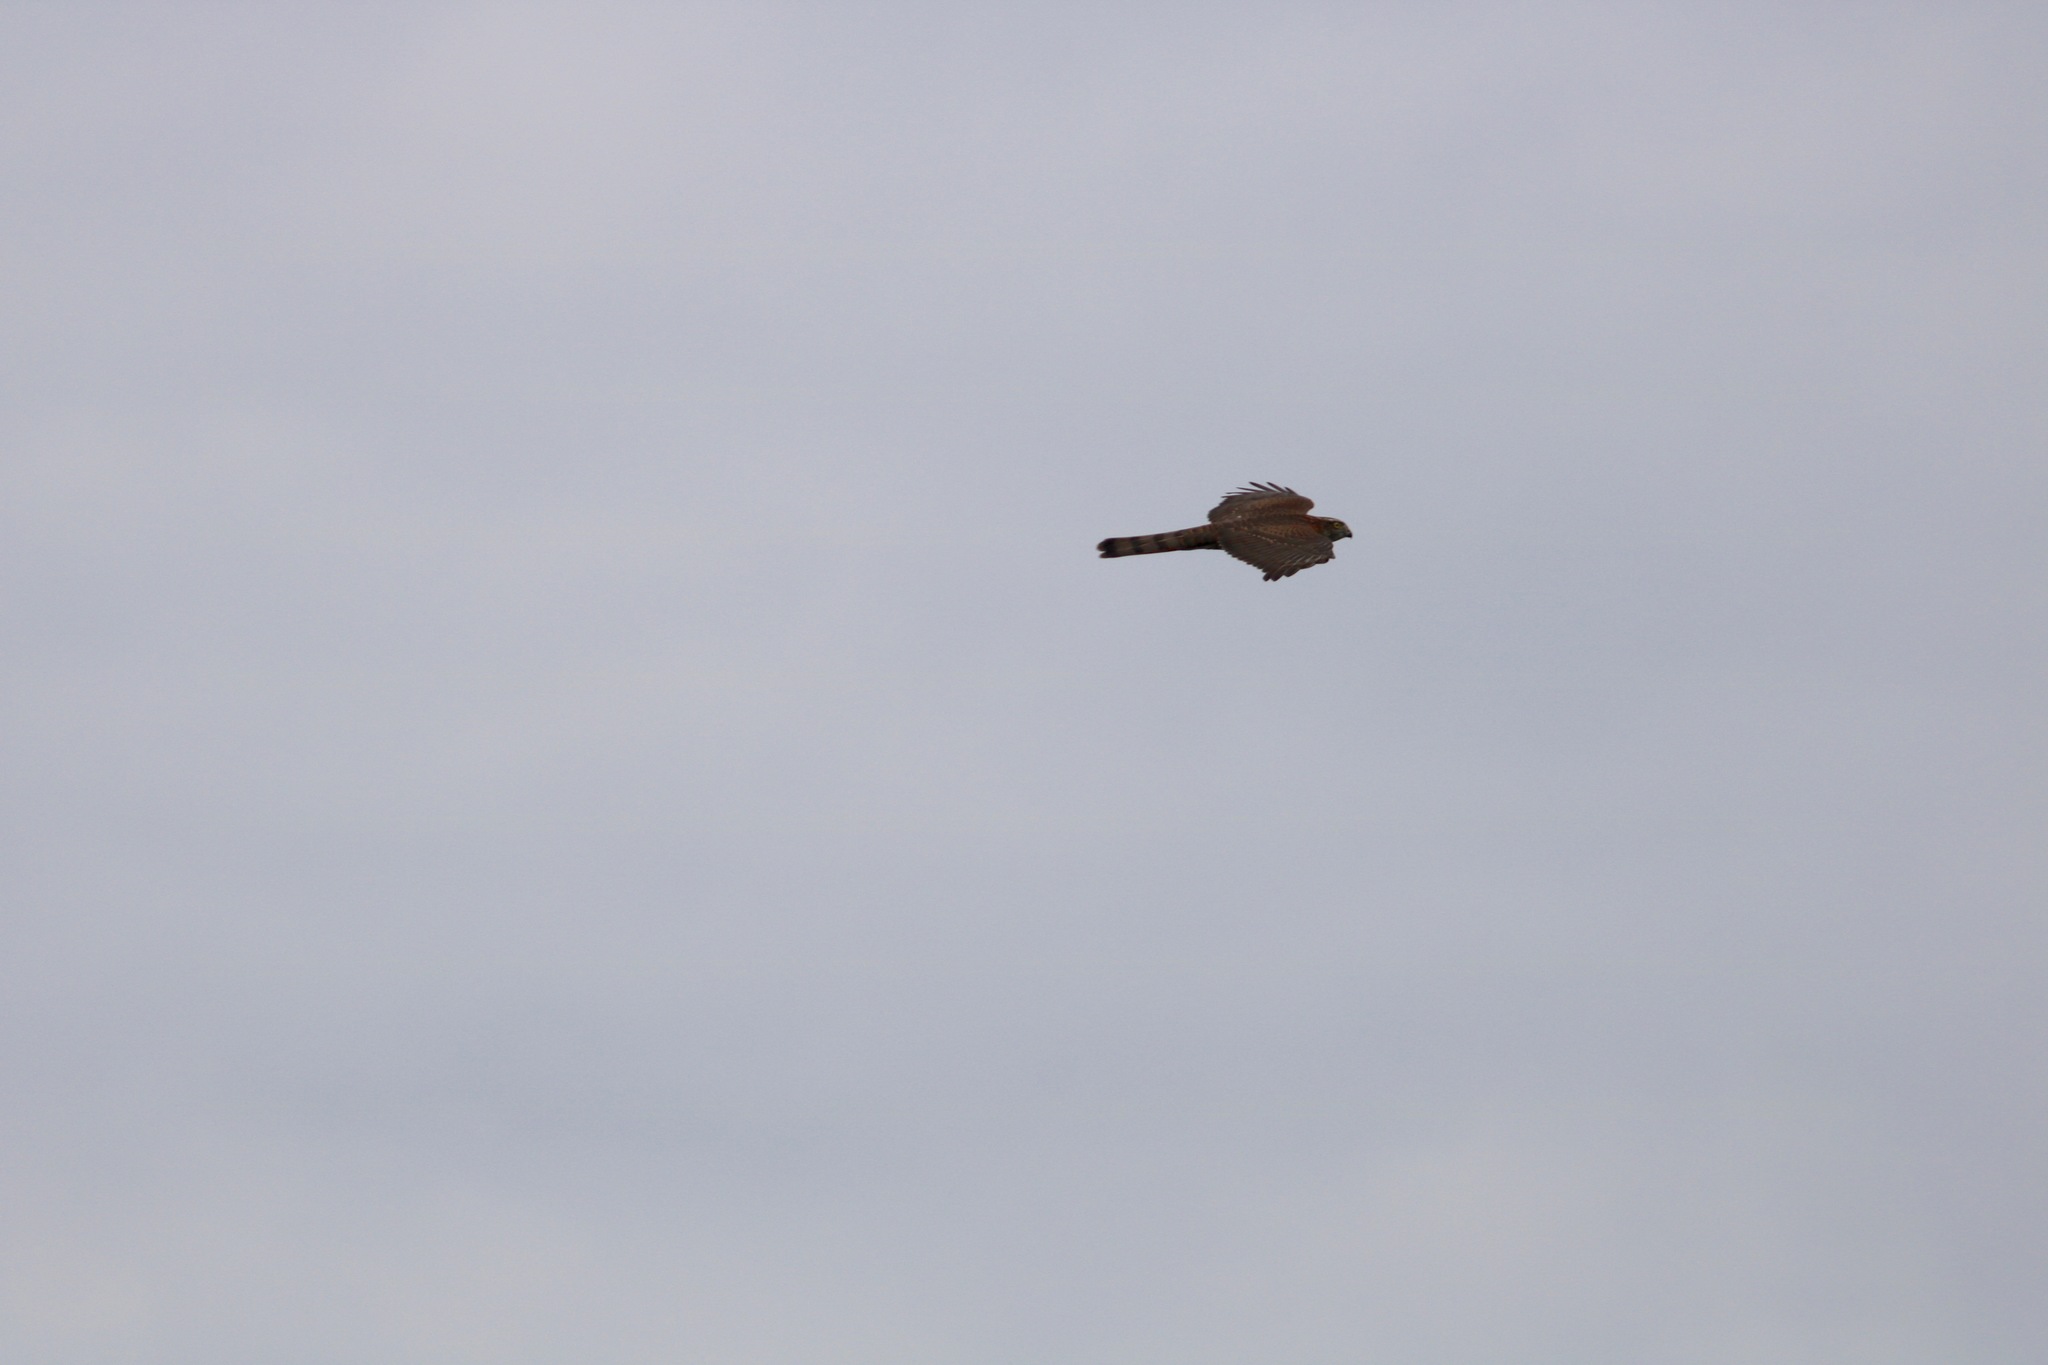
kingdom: Animalia
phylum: Chordata
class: Aves
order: Accipitriformes
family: Accipitridae
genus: Accipiter
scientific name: Accipiter nisus
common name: Eurasian sparrowhawk
